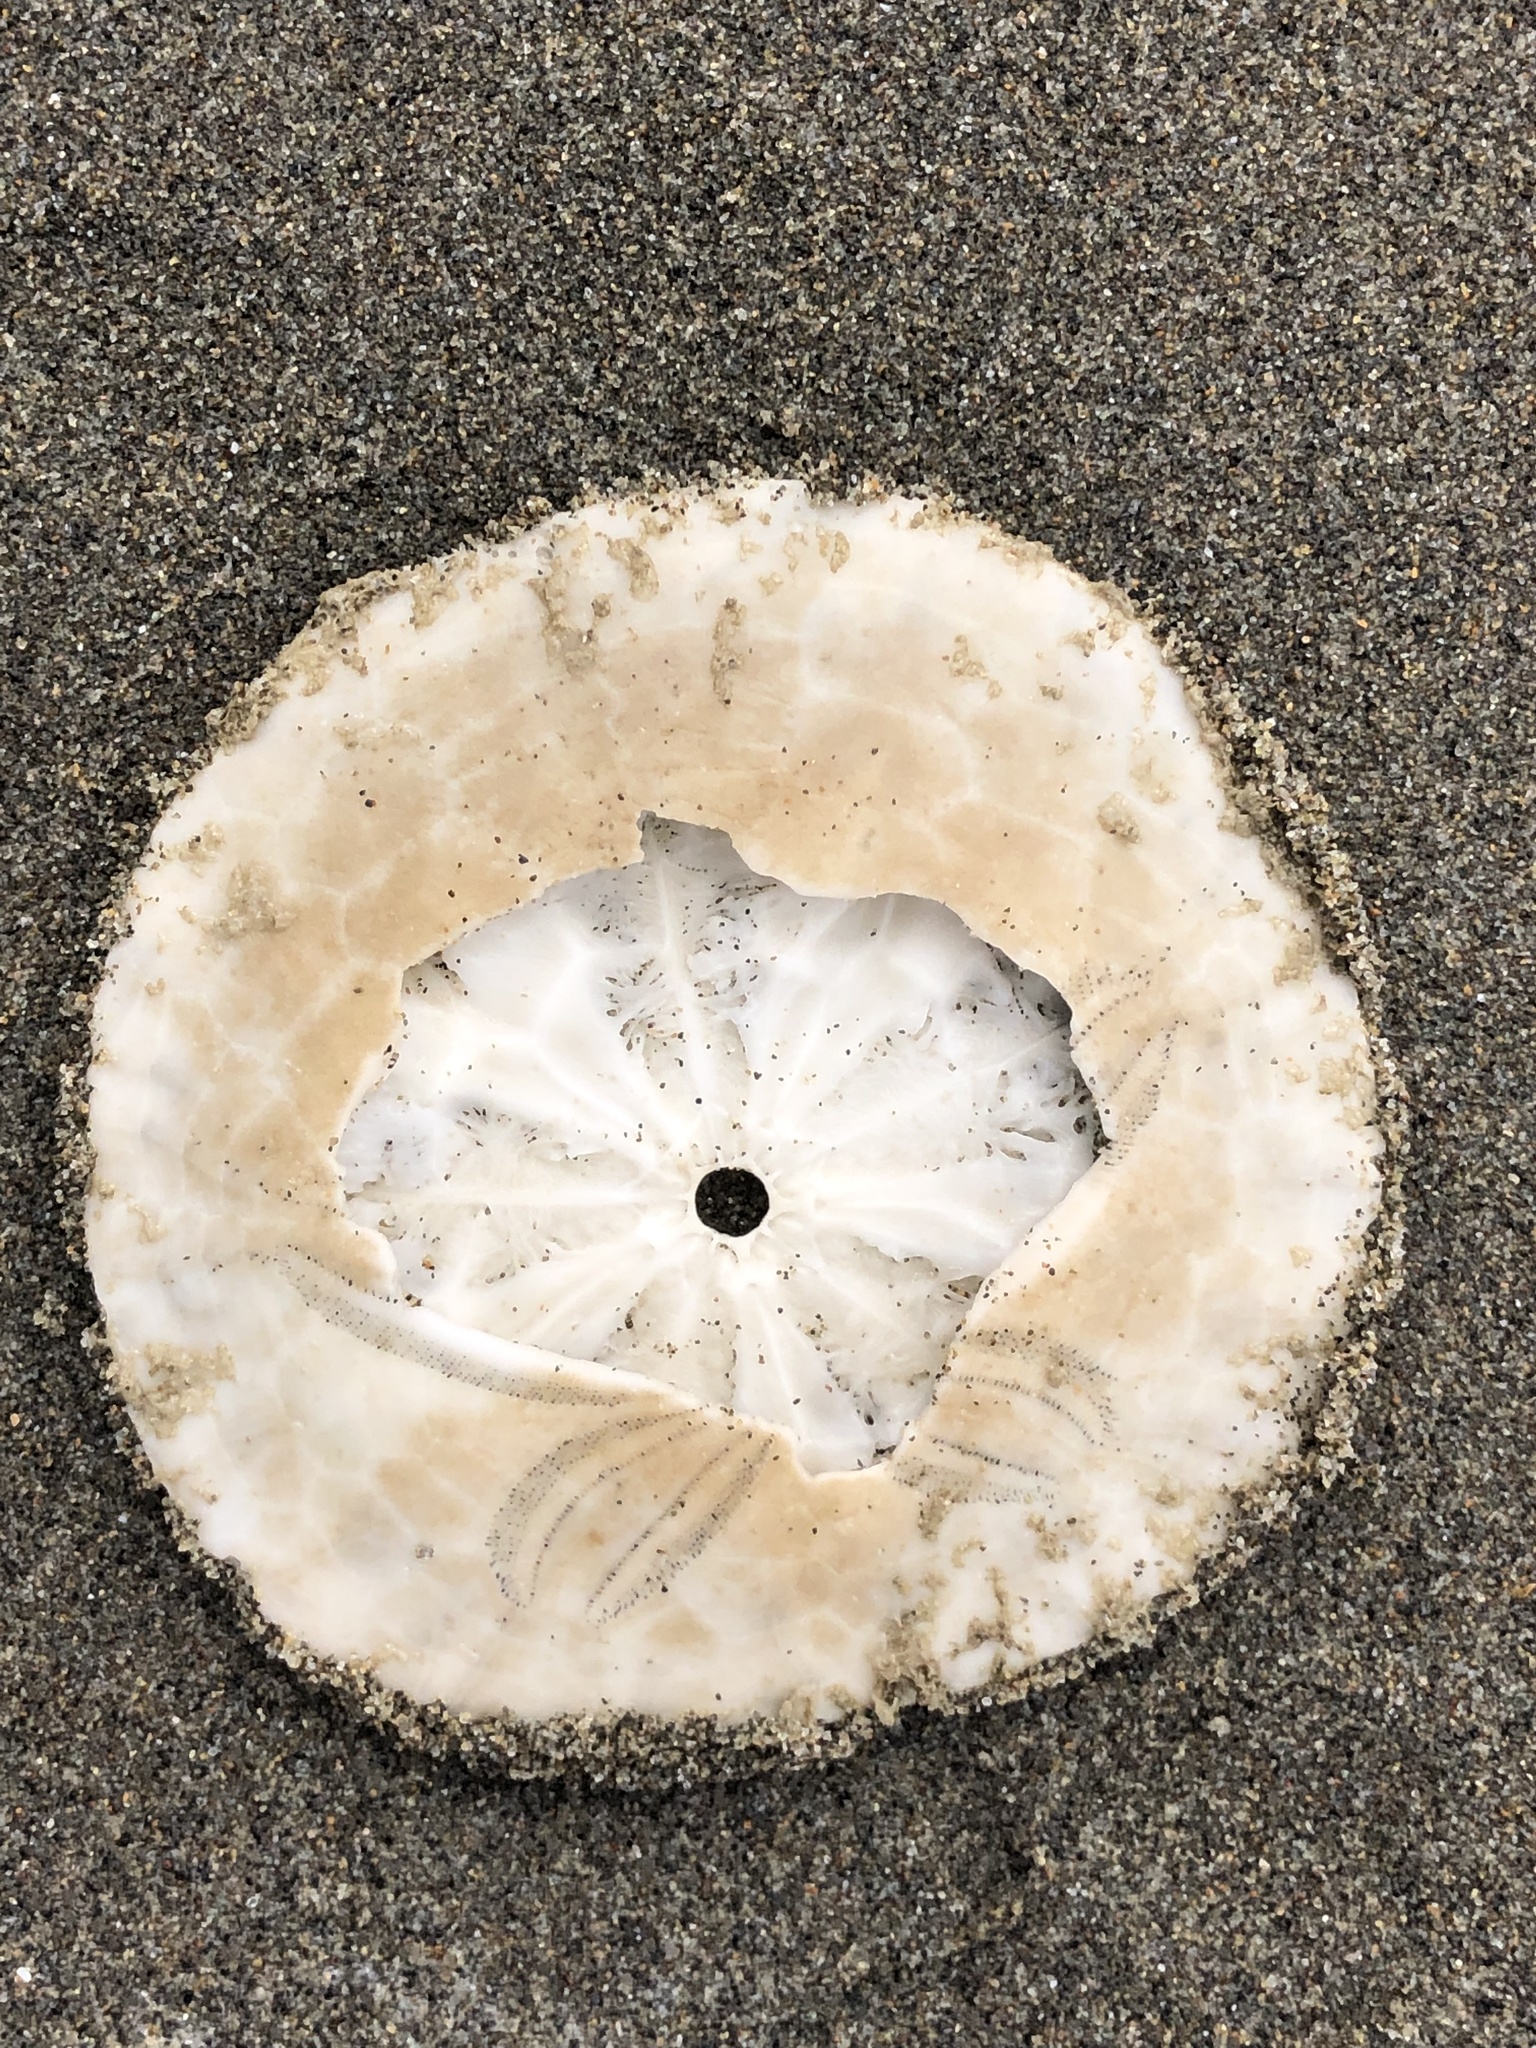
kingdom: Animalia
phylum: Echinodermata
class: Echinoidea
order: Echinolampadacea
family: Dendrasteridae
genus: Dendraster
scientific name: Dendraster excentricus
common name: Eccentric sand dollar sea urchin
